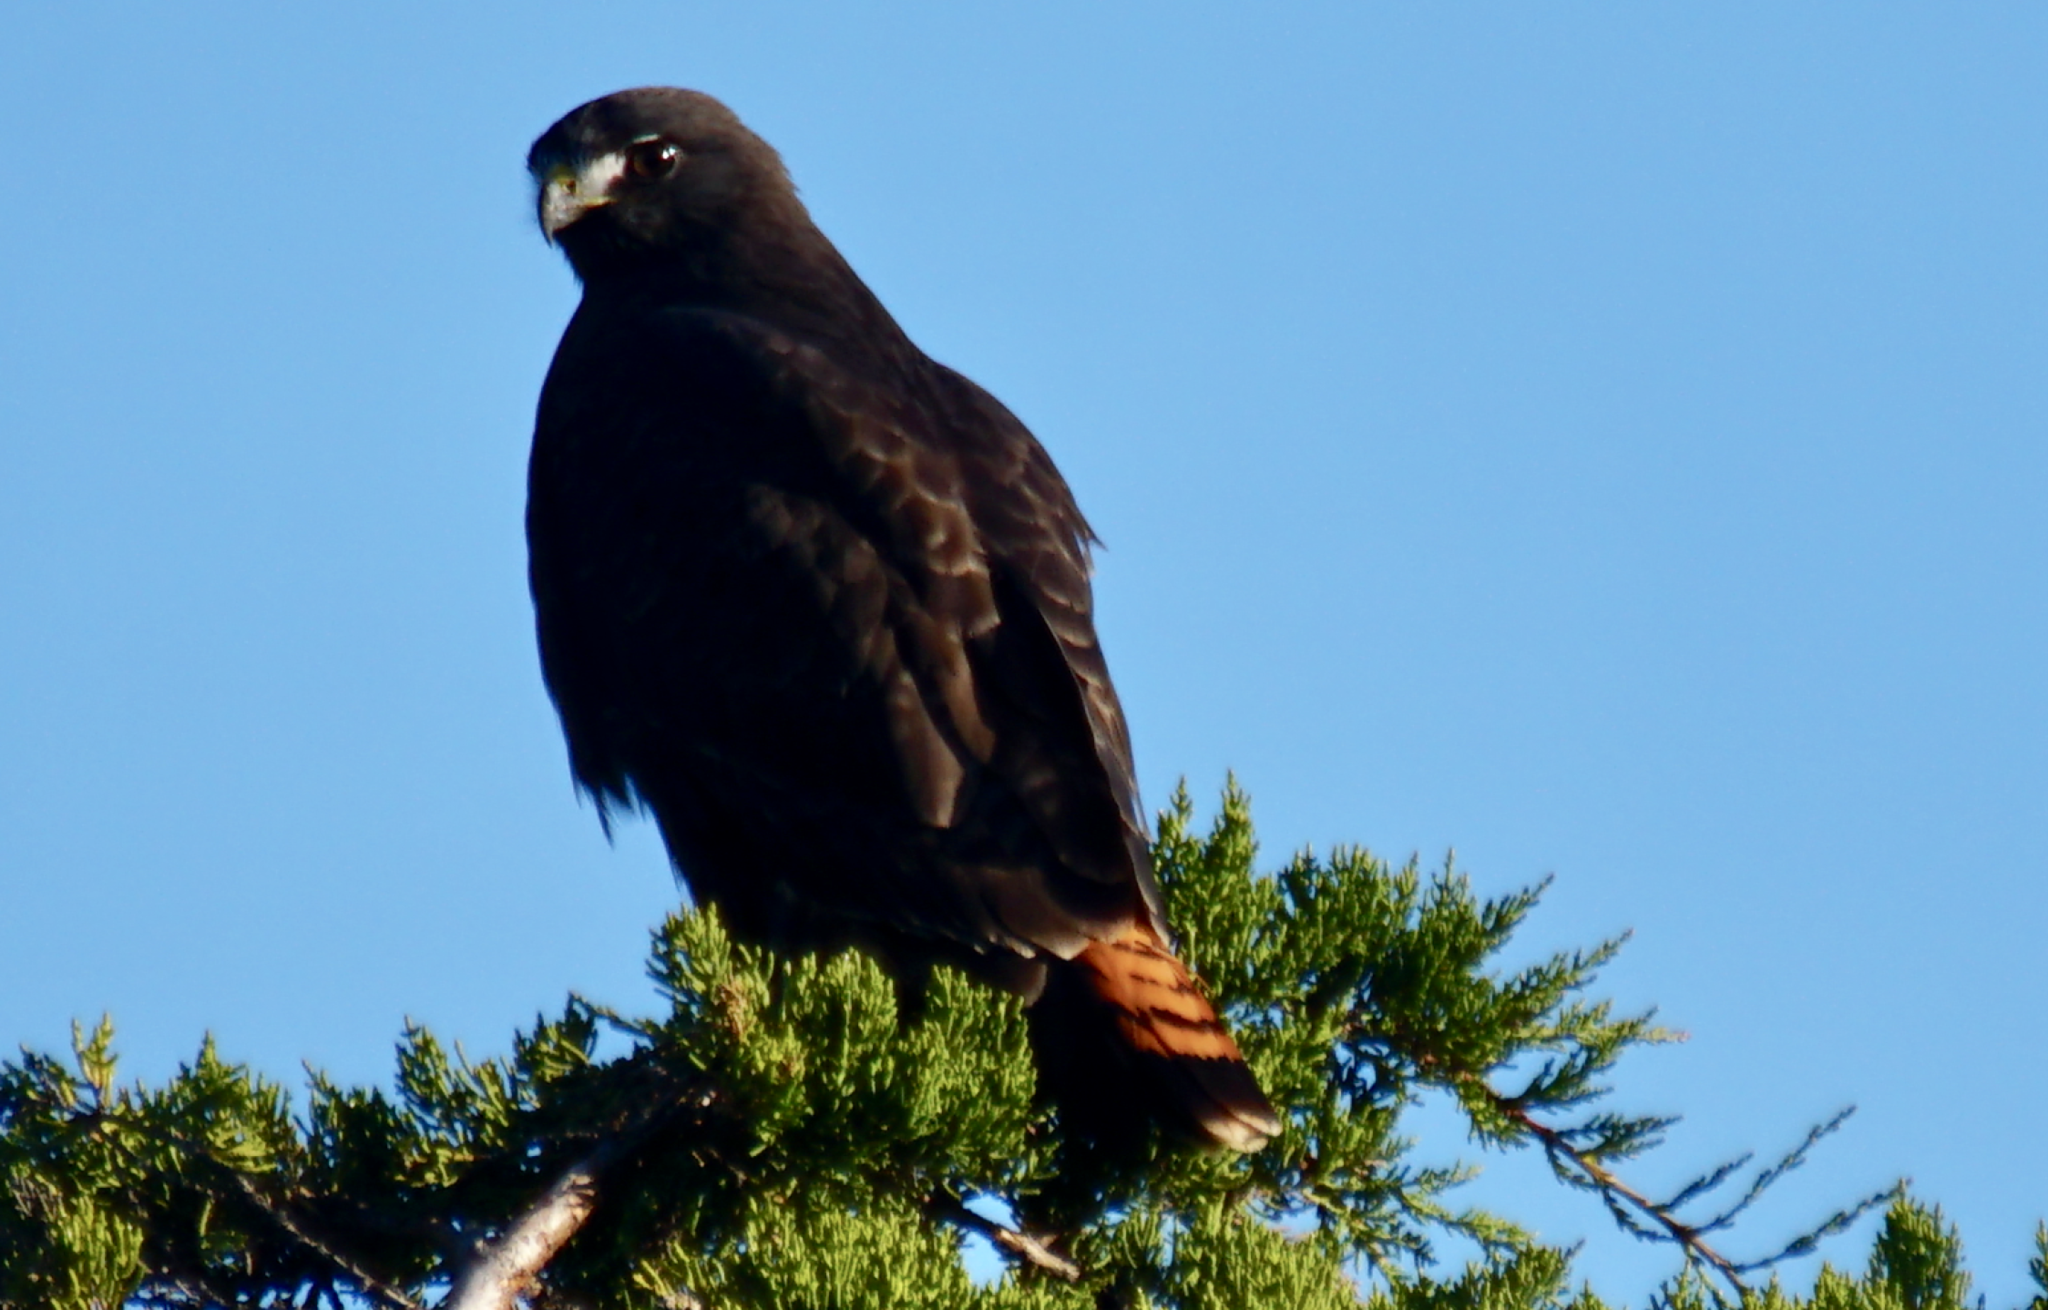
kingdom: Animalia
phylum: Chordata
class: Aves
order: Accipitriformes
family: Accipitridae
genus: Buteo
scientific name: Buteo jamaicensis
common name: Red-tailed hawk
